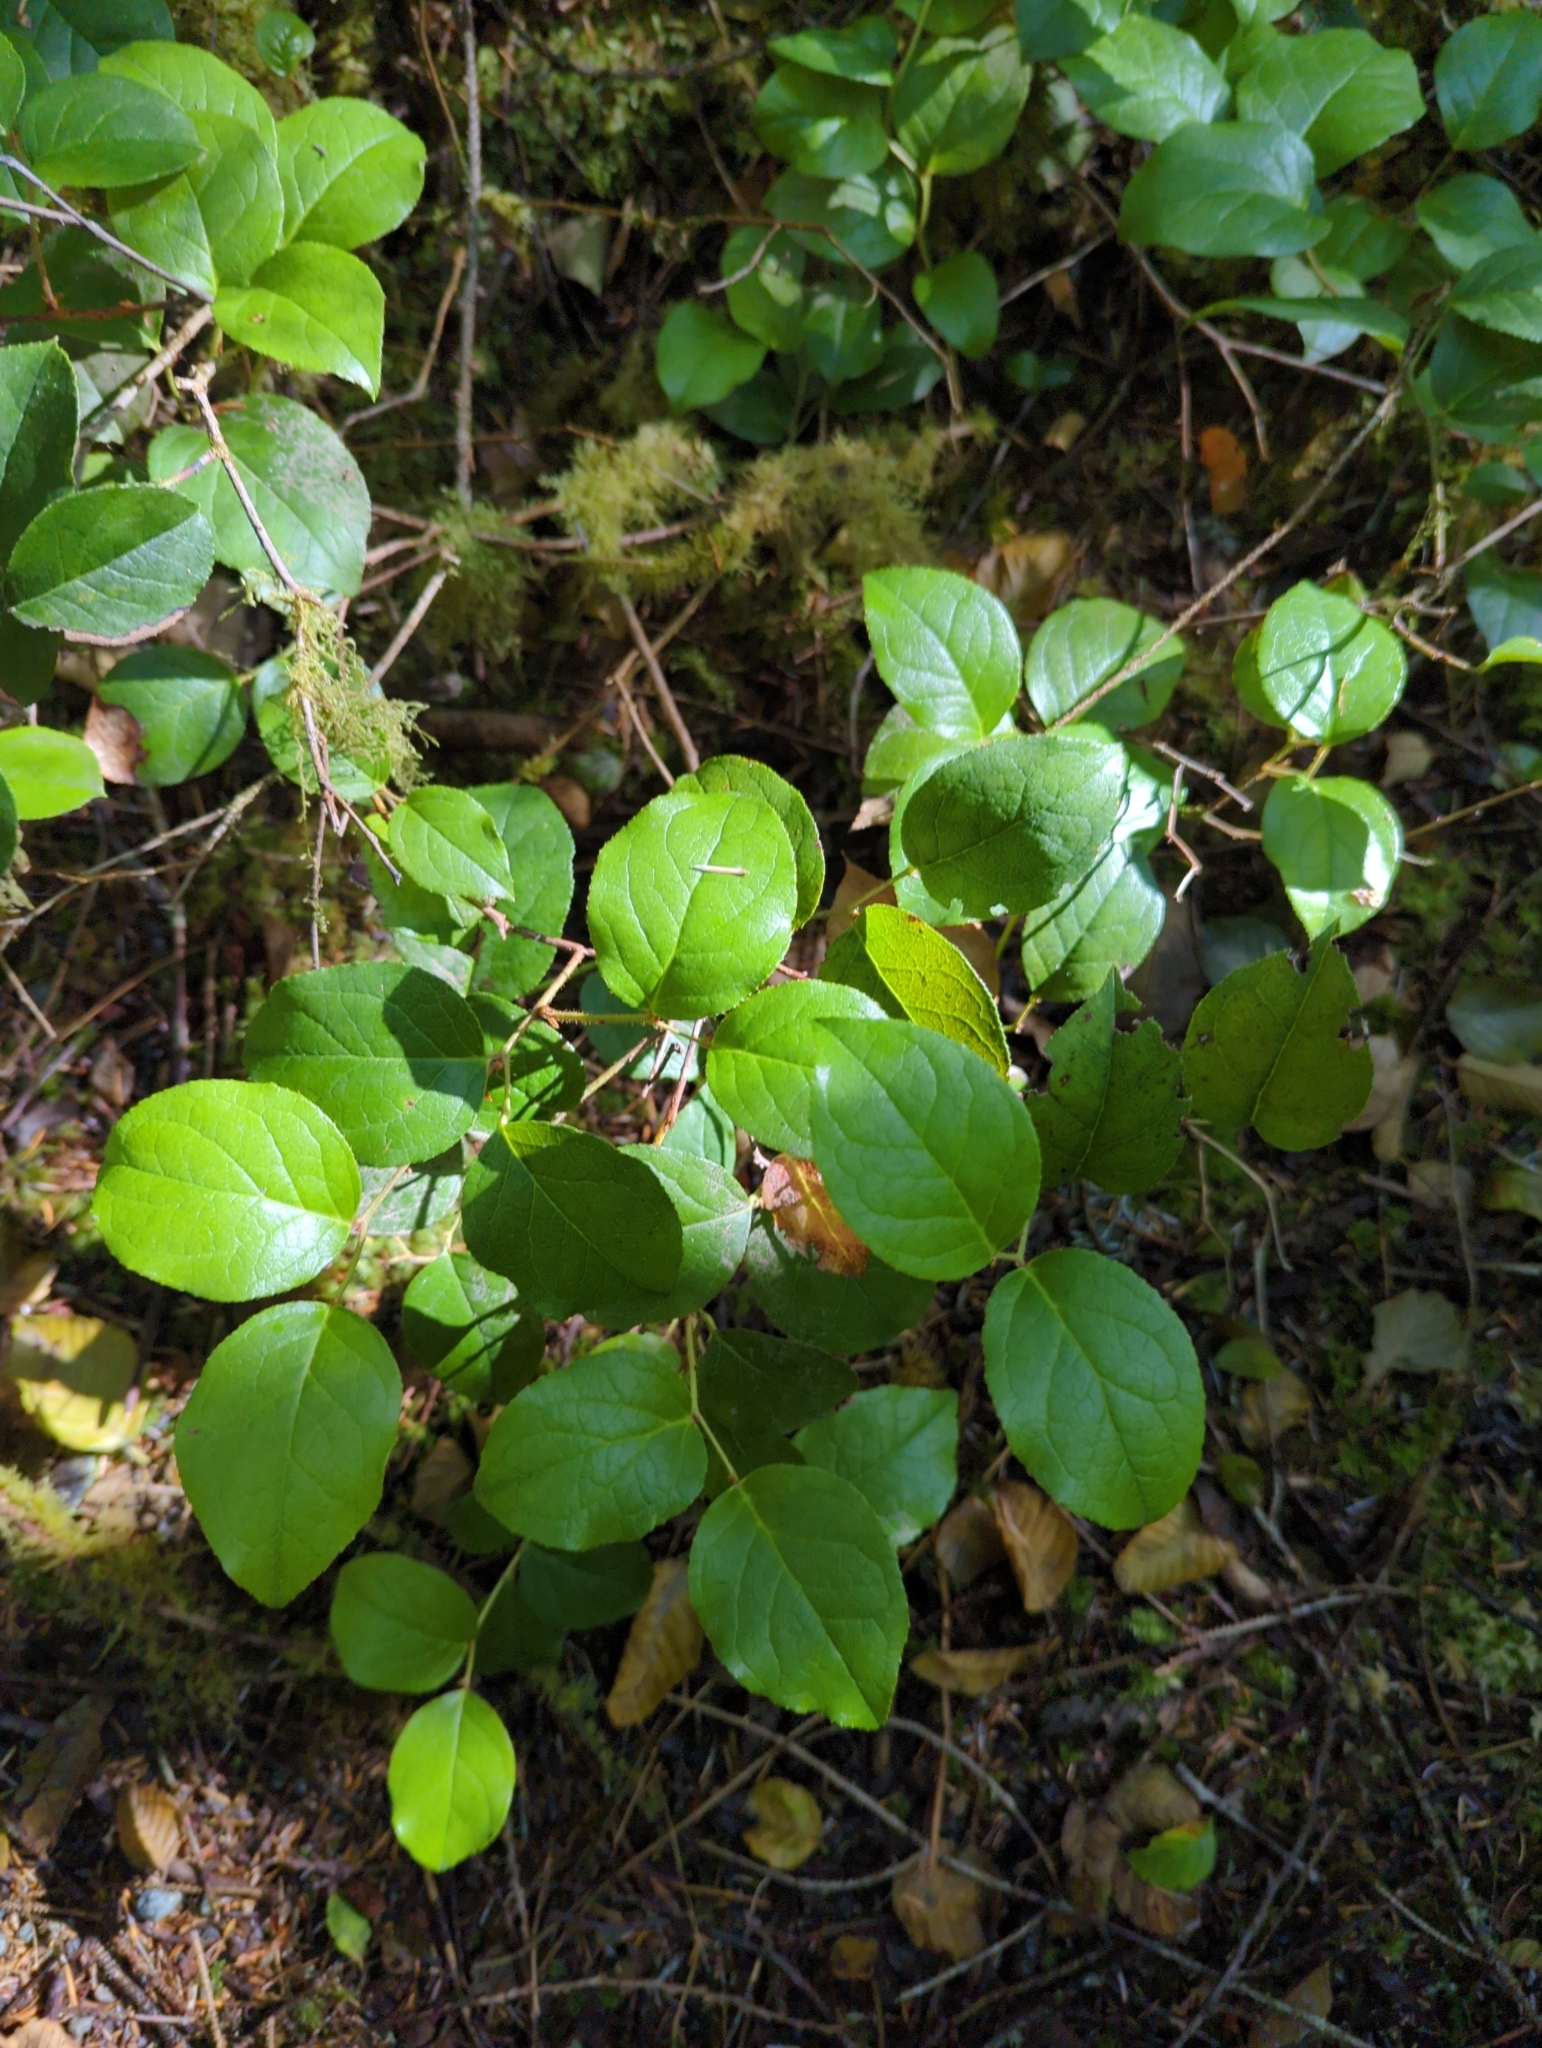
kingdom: Plantae
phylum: Tracheophyta
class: Magnoliopsida
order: Ericales
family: Ericaceae
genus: Gaultheria
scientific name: Gaultheria shallon
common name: Shallon
